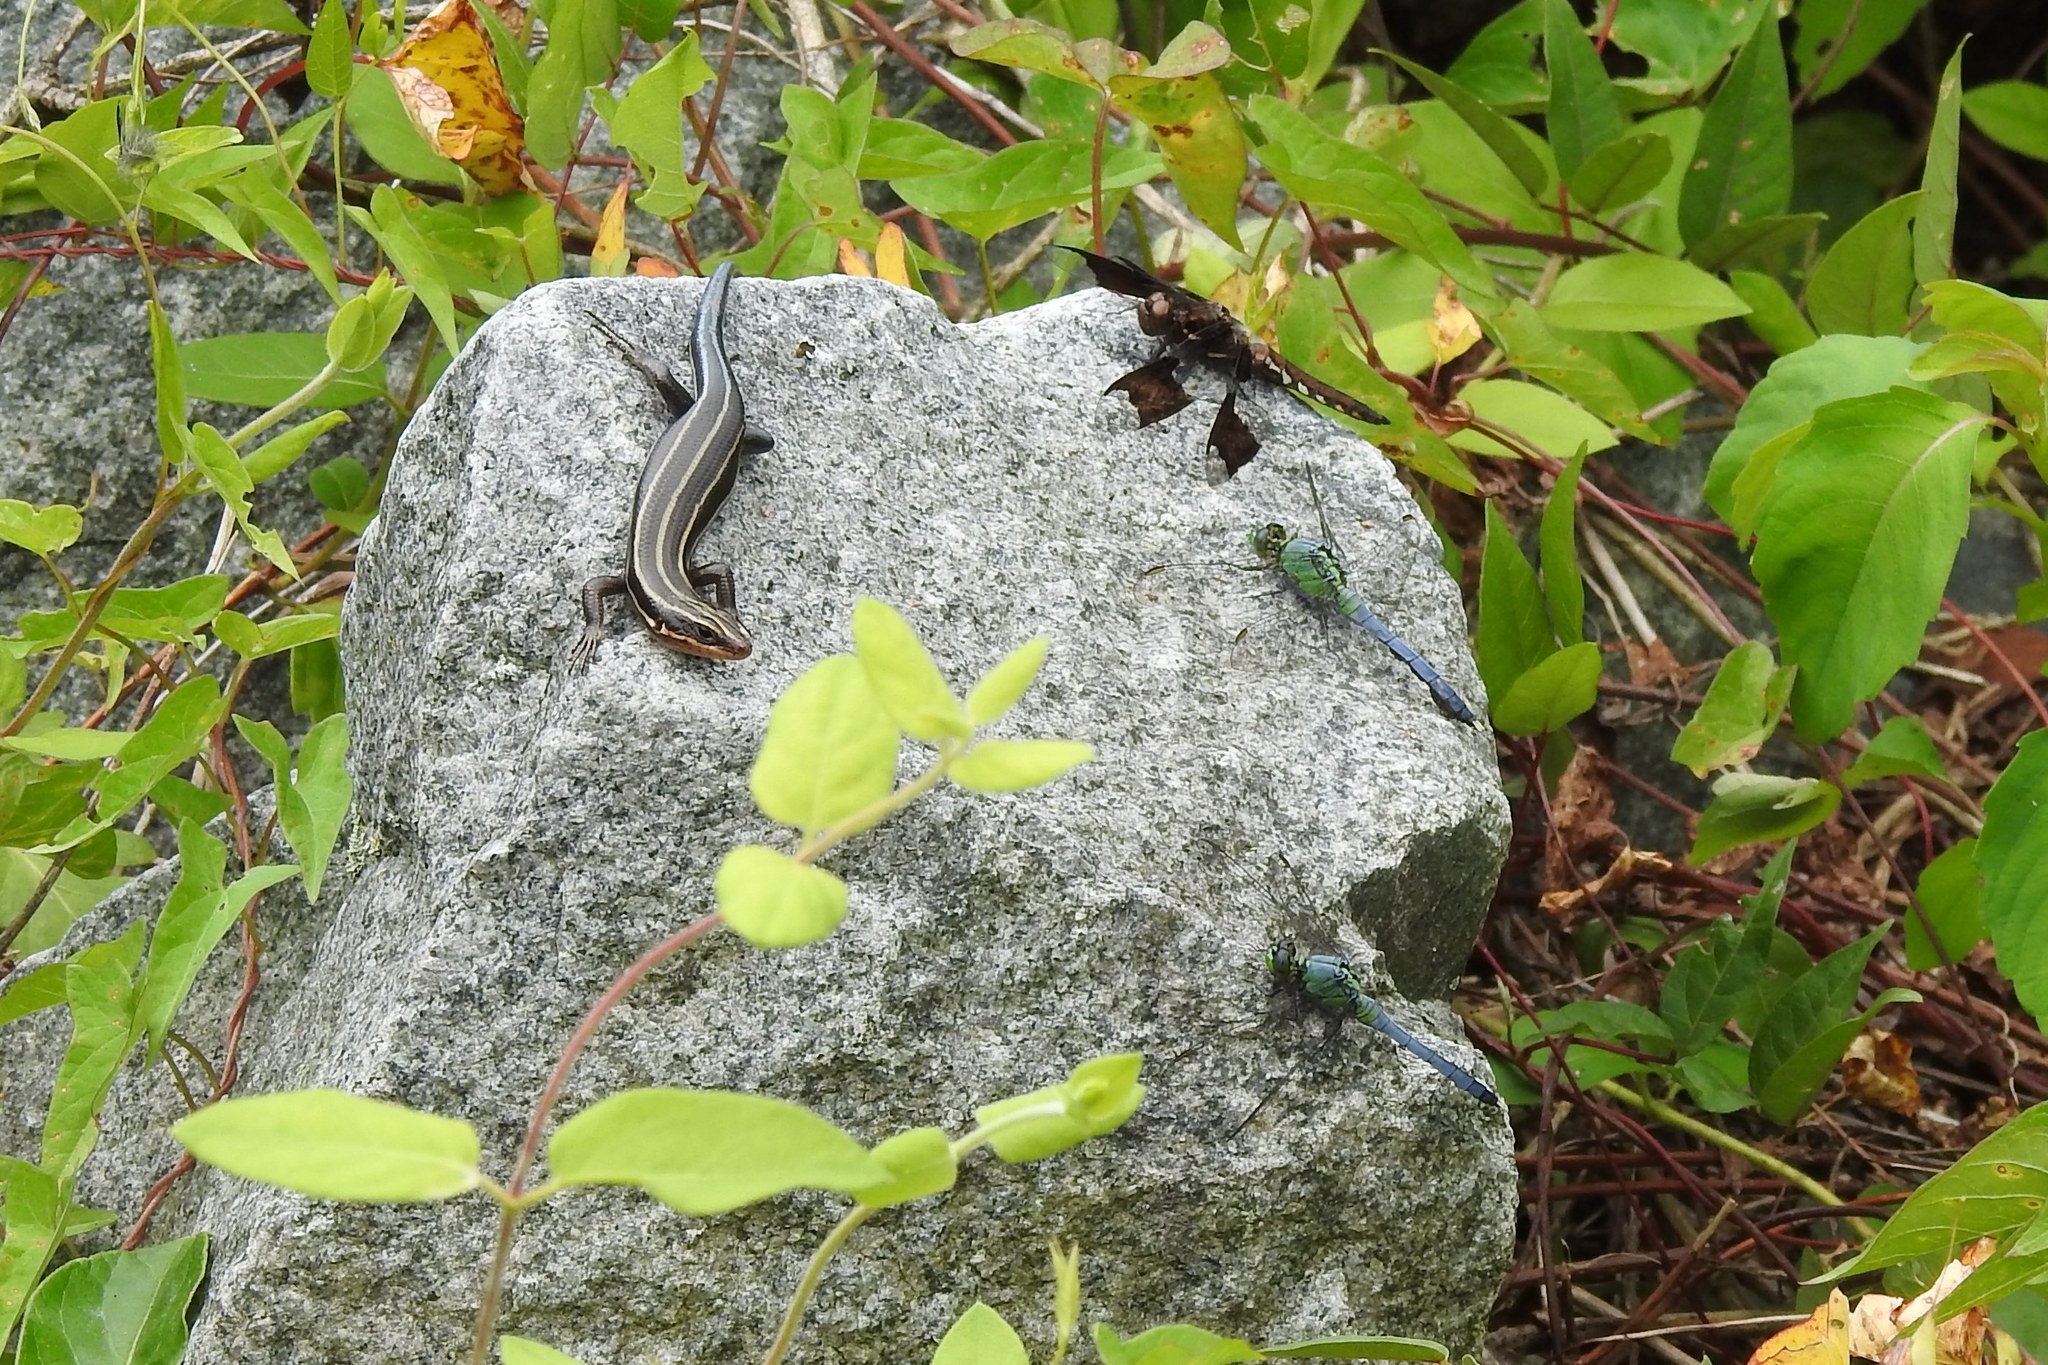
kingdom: Animalia
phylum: Arthropoda
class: Insecta
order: Odonata
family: Libellulidae
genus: Erythemis
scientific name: Erythemis simplicicollis
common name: Eastern pondhawk
